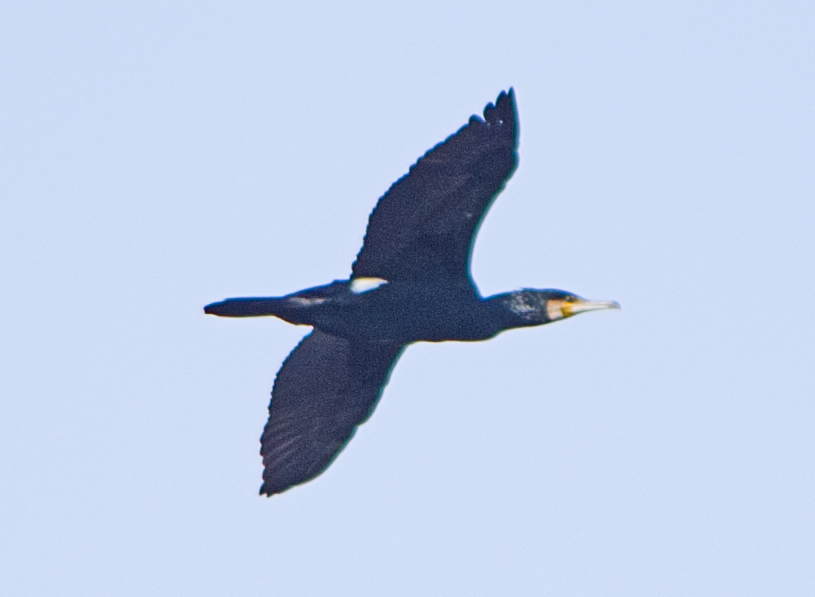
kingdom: Animalia
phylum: Chordata
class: Aves
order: Suliformes
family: Phalacrocoracidae
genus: Phalacrocorax
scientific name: Phalacrocorax carbo
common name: Great cormorant
